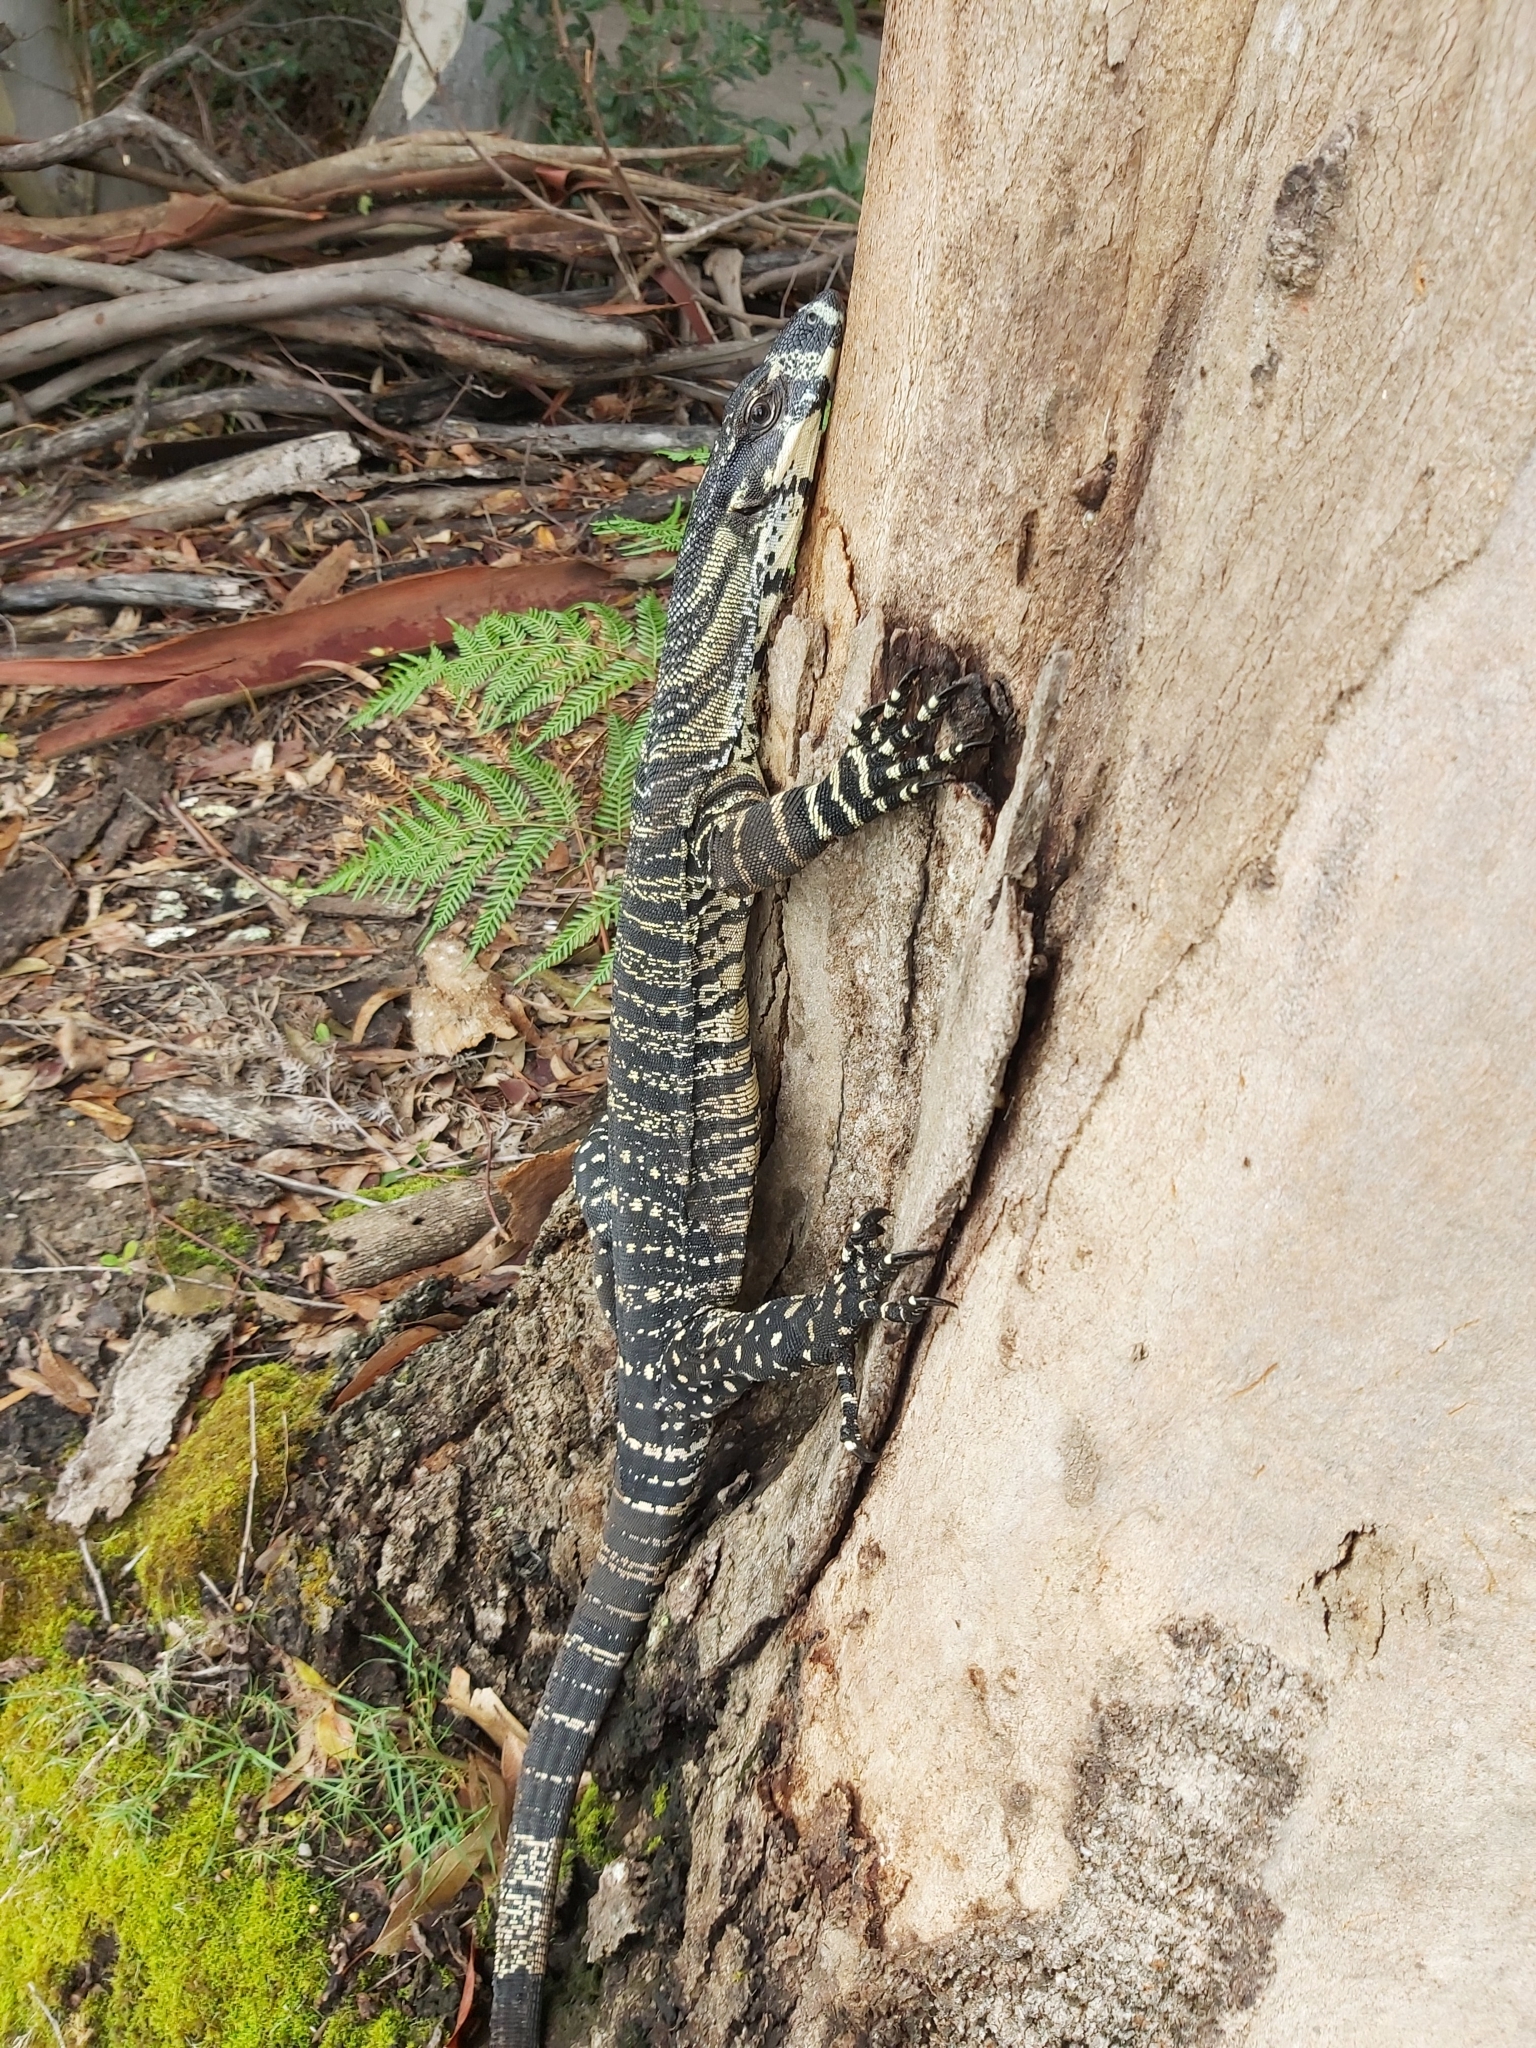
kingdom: Animalia
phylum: Chordata
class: Squamata
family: Varanidae
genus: Varanus
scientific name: Varanus varius
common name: Lace monitor
